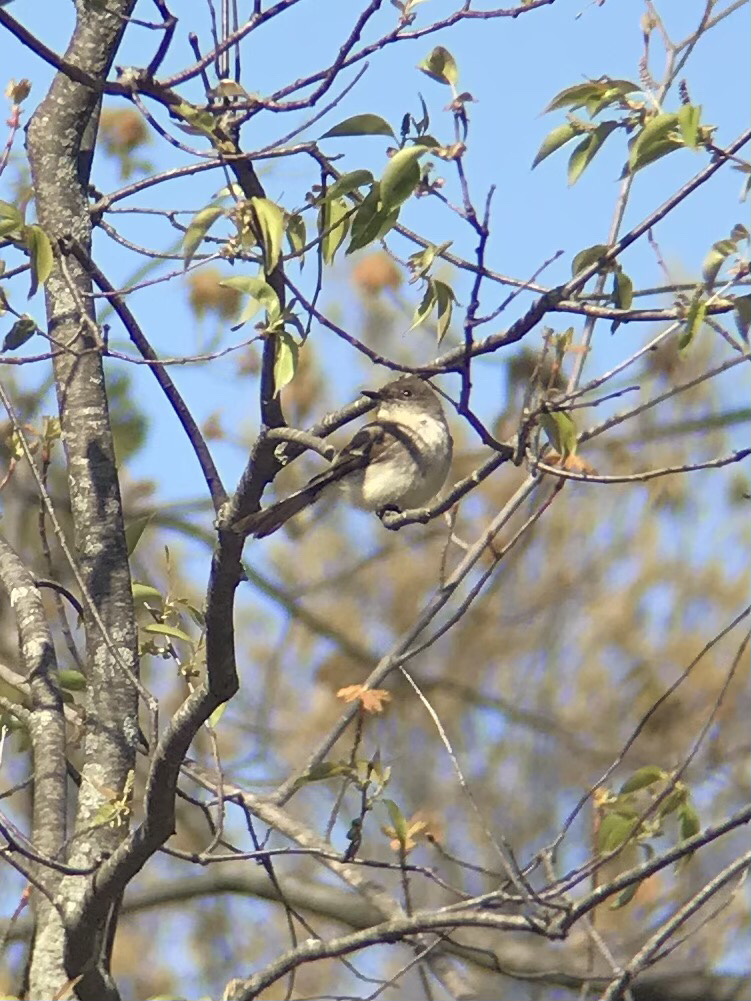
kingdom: Animalia
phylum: Chordata
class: Aves
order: Passeriformes
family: Tyrannidae
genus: Sayornis
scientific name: Sayornis phoebe
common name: Eastern phoebe
